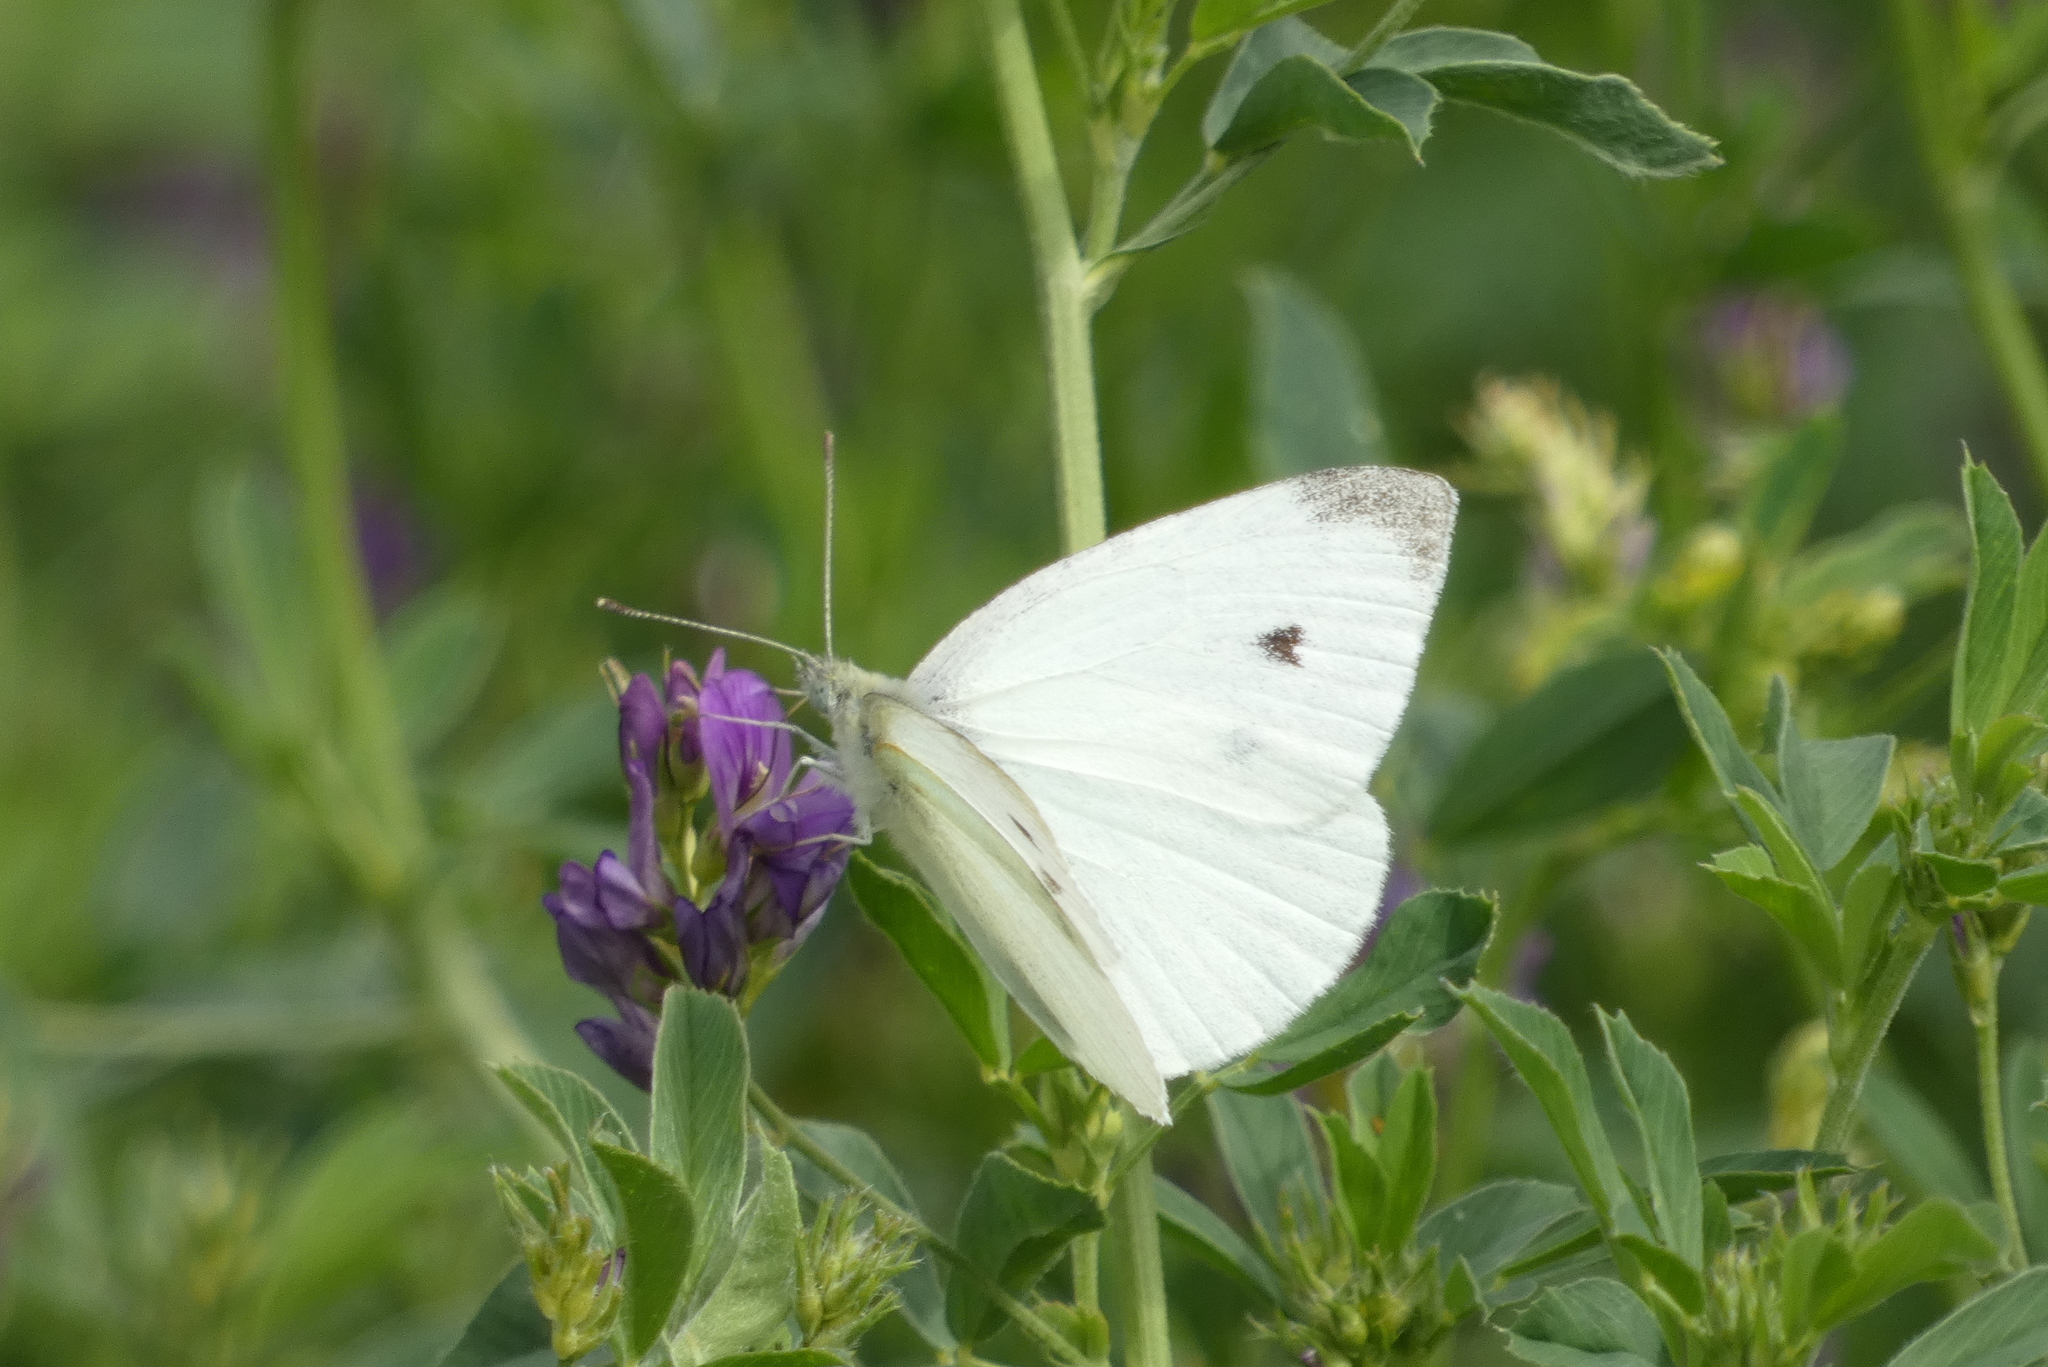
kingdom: Animalia
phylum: Arthropoda
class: Insecta
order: Lepidoptera
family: Pieridae
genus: Pieris
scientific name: Pieris rapae
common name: Small white
